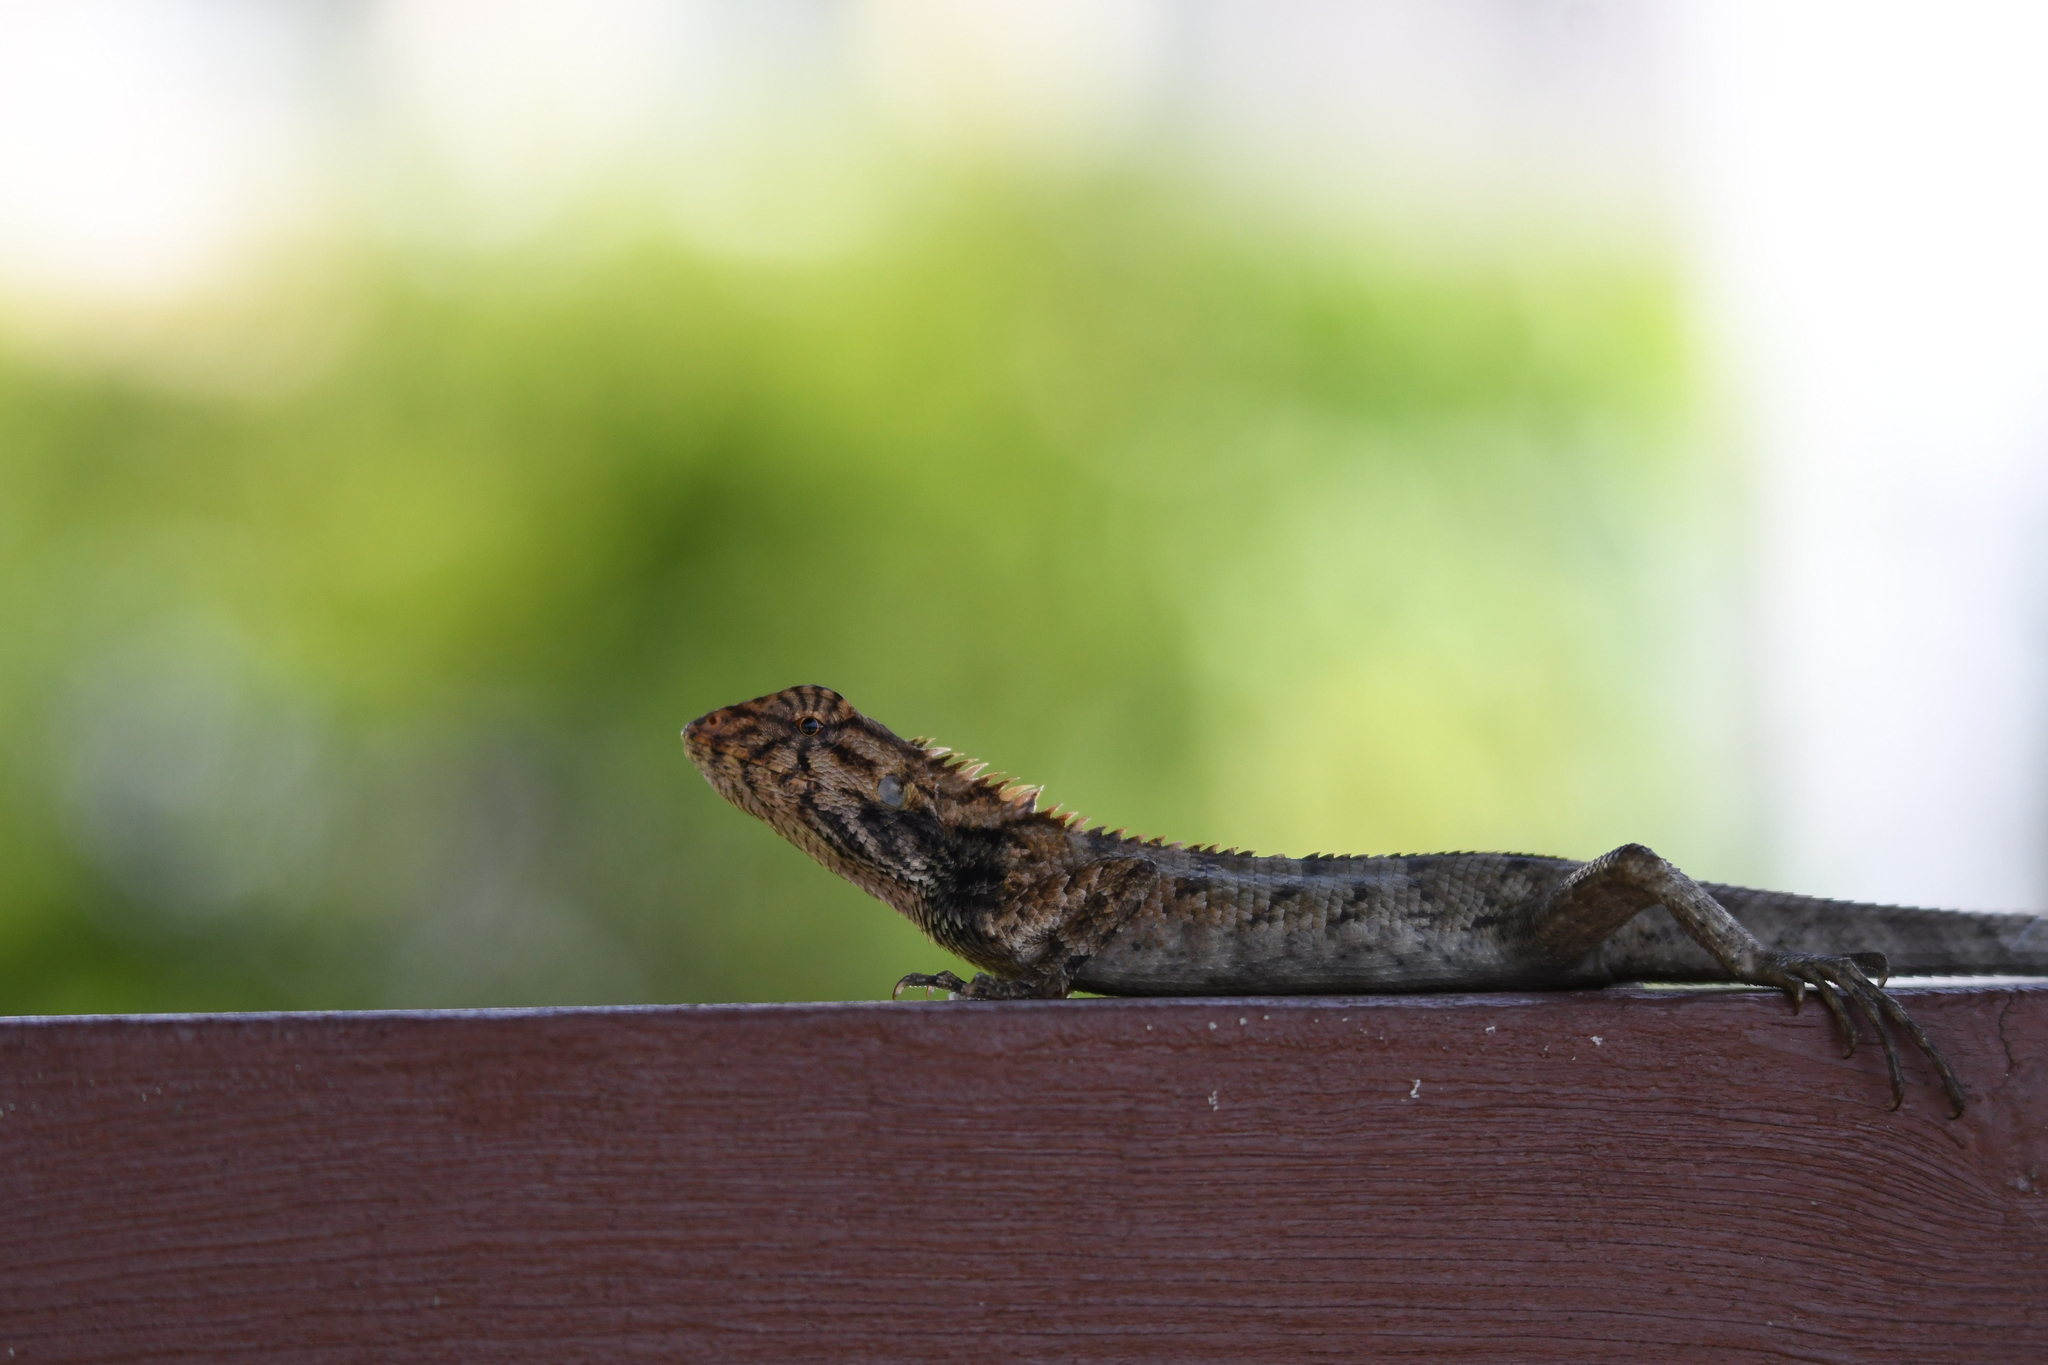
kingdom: Animalia
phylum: Chordata
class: Squamata
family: Agamidae
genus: Calotes
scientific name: Calotes versicolor
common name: Oriental garden lizard
